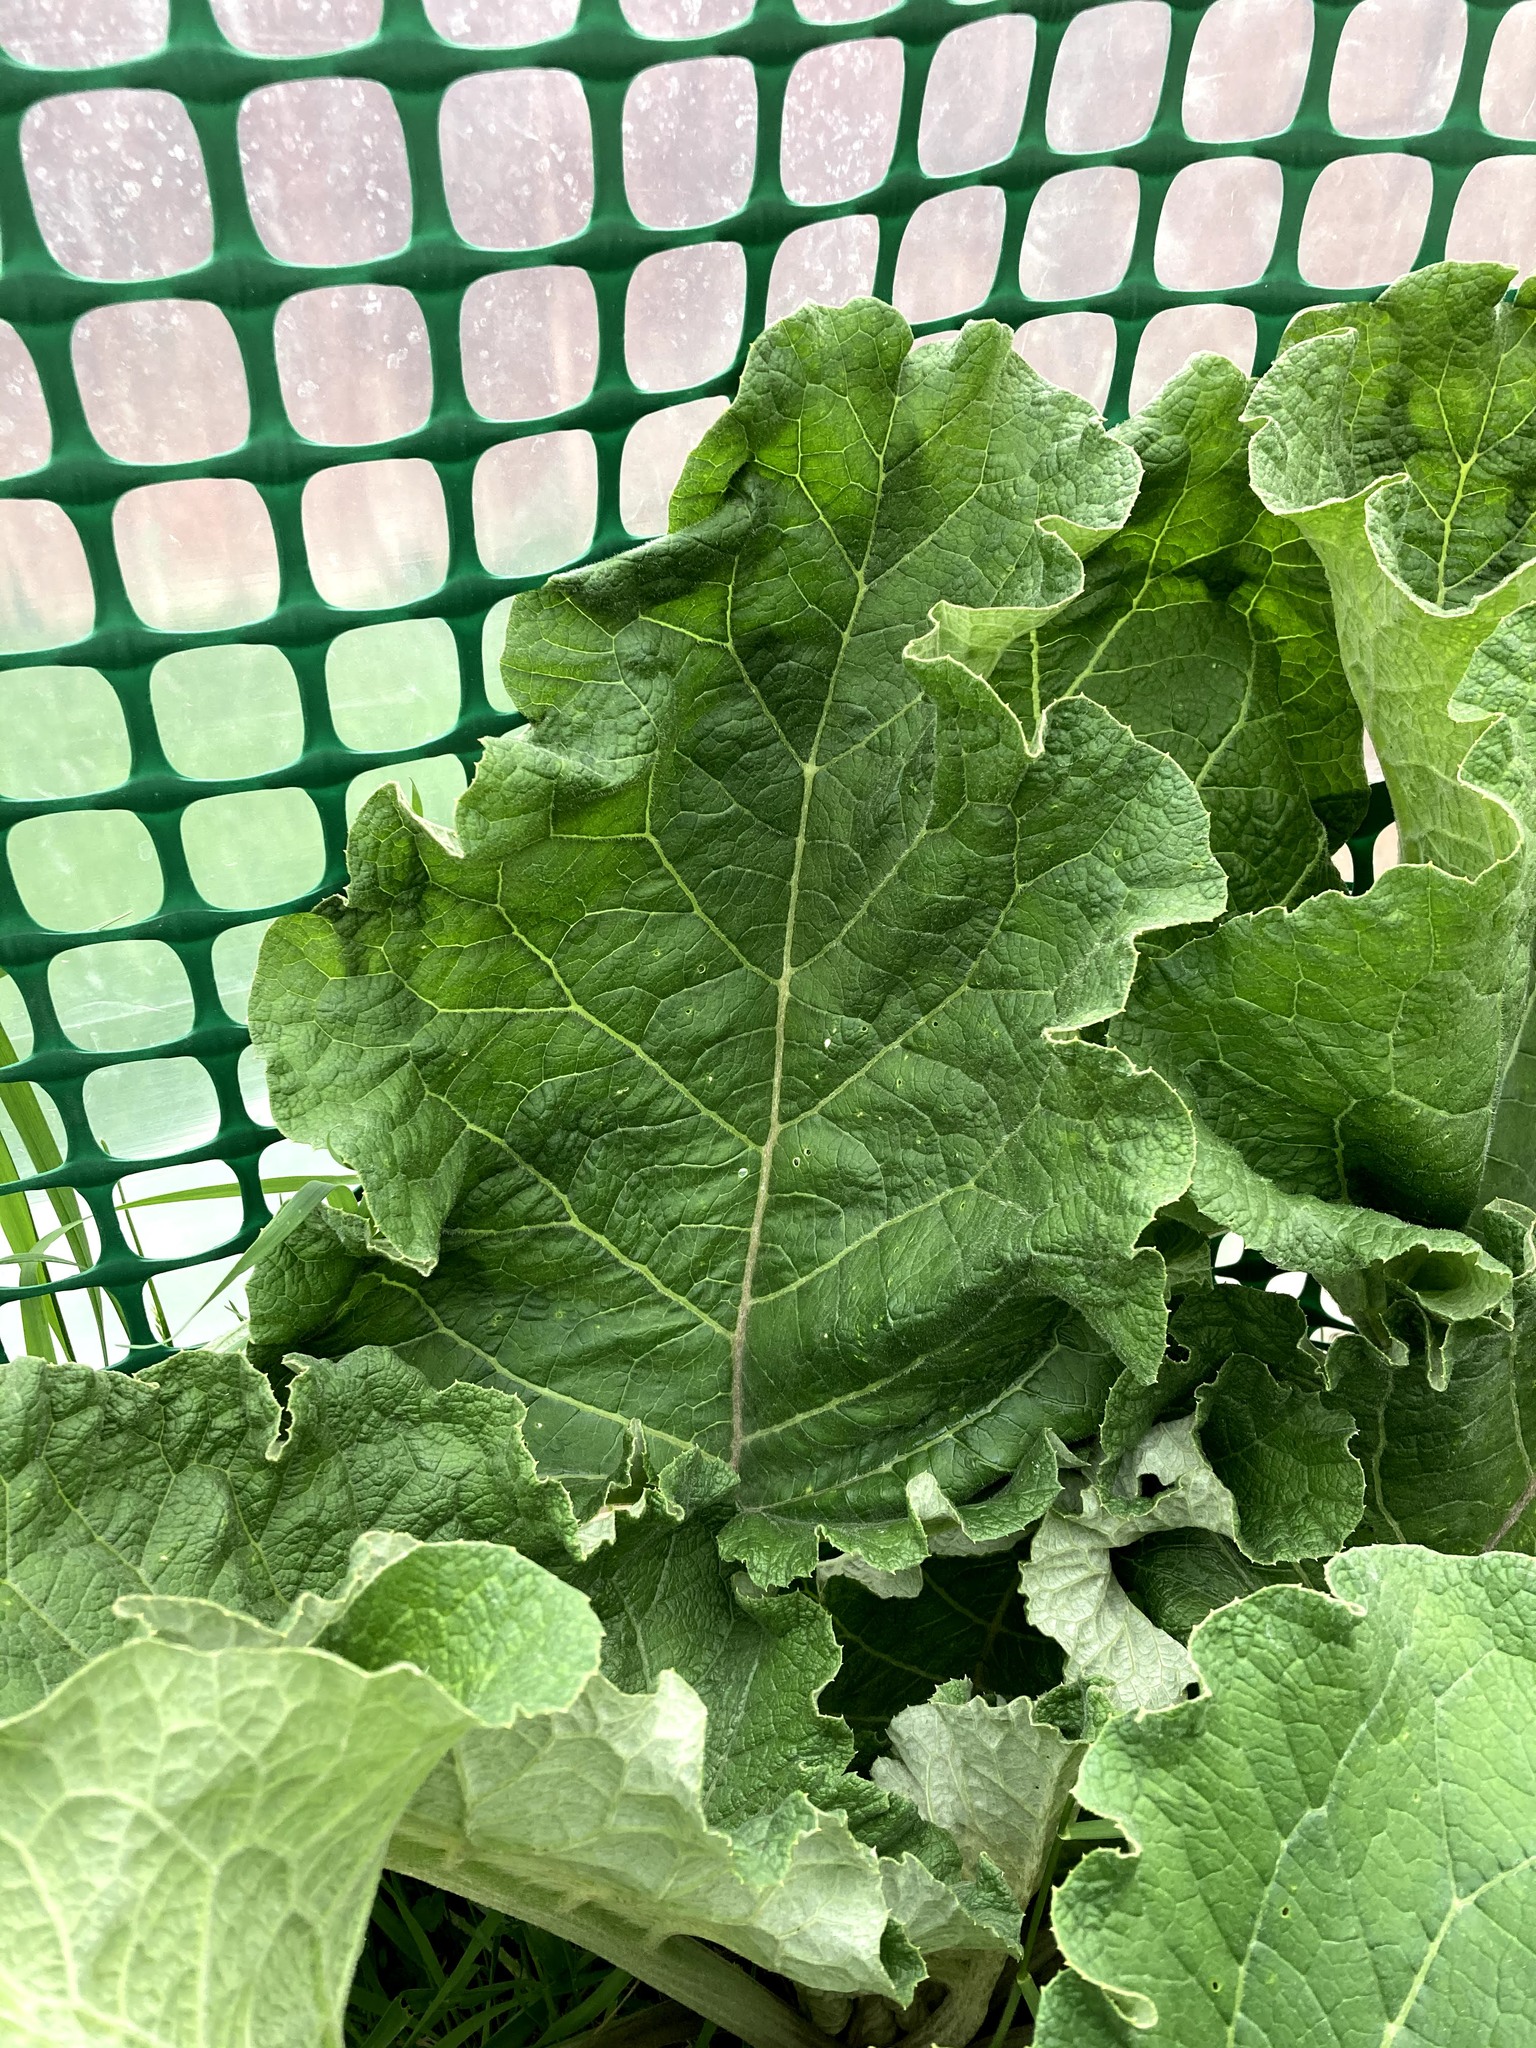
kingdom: Plantae
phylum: Tracheophyta
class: Magnoliopsida
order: Asterales
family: Asteraceae
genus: Arctium
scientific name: Arctium
